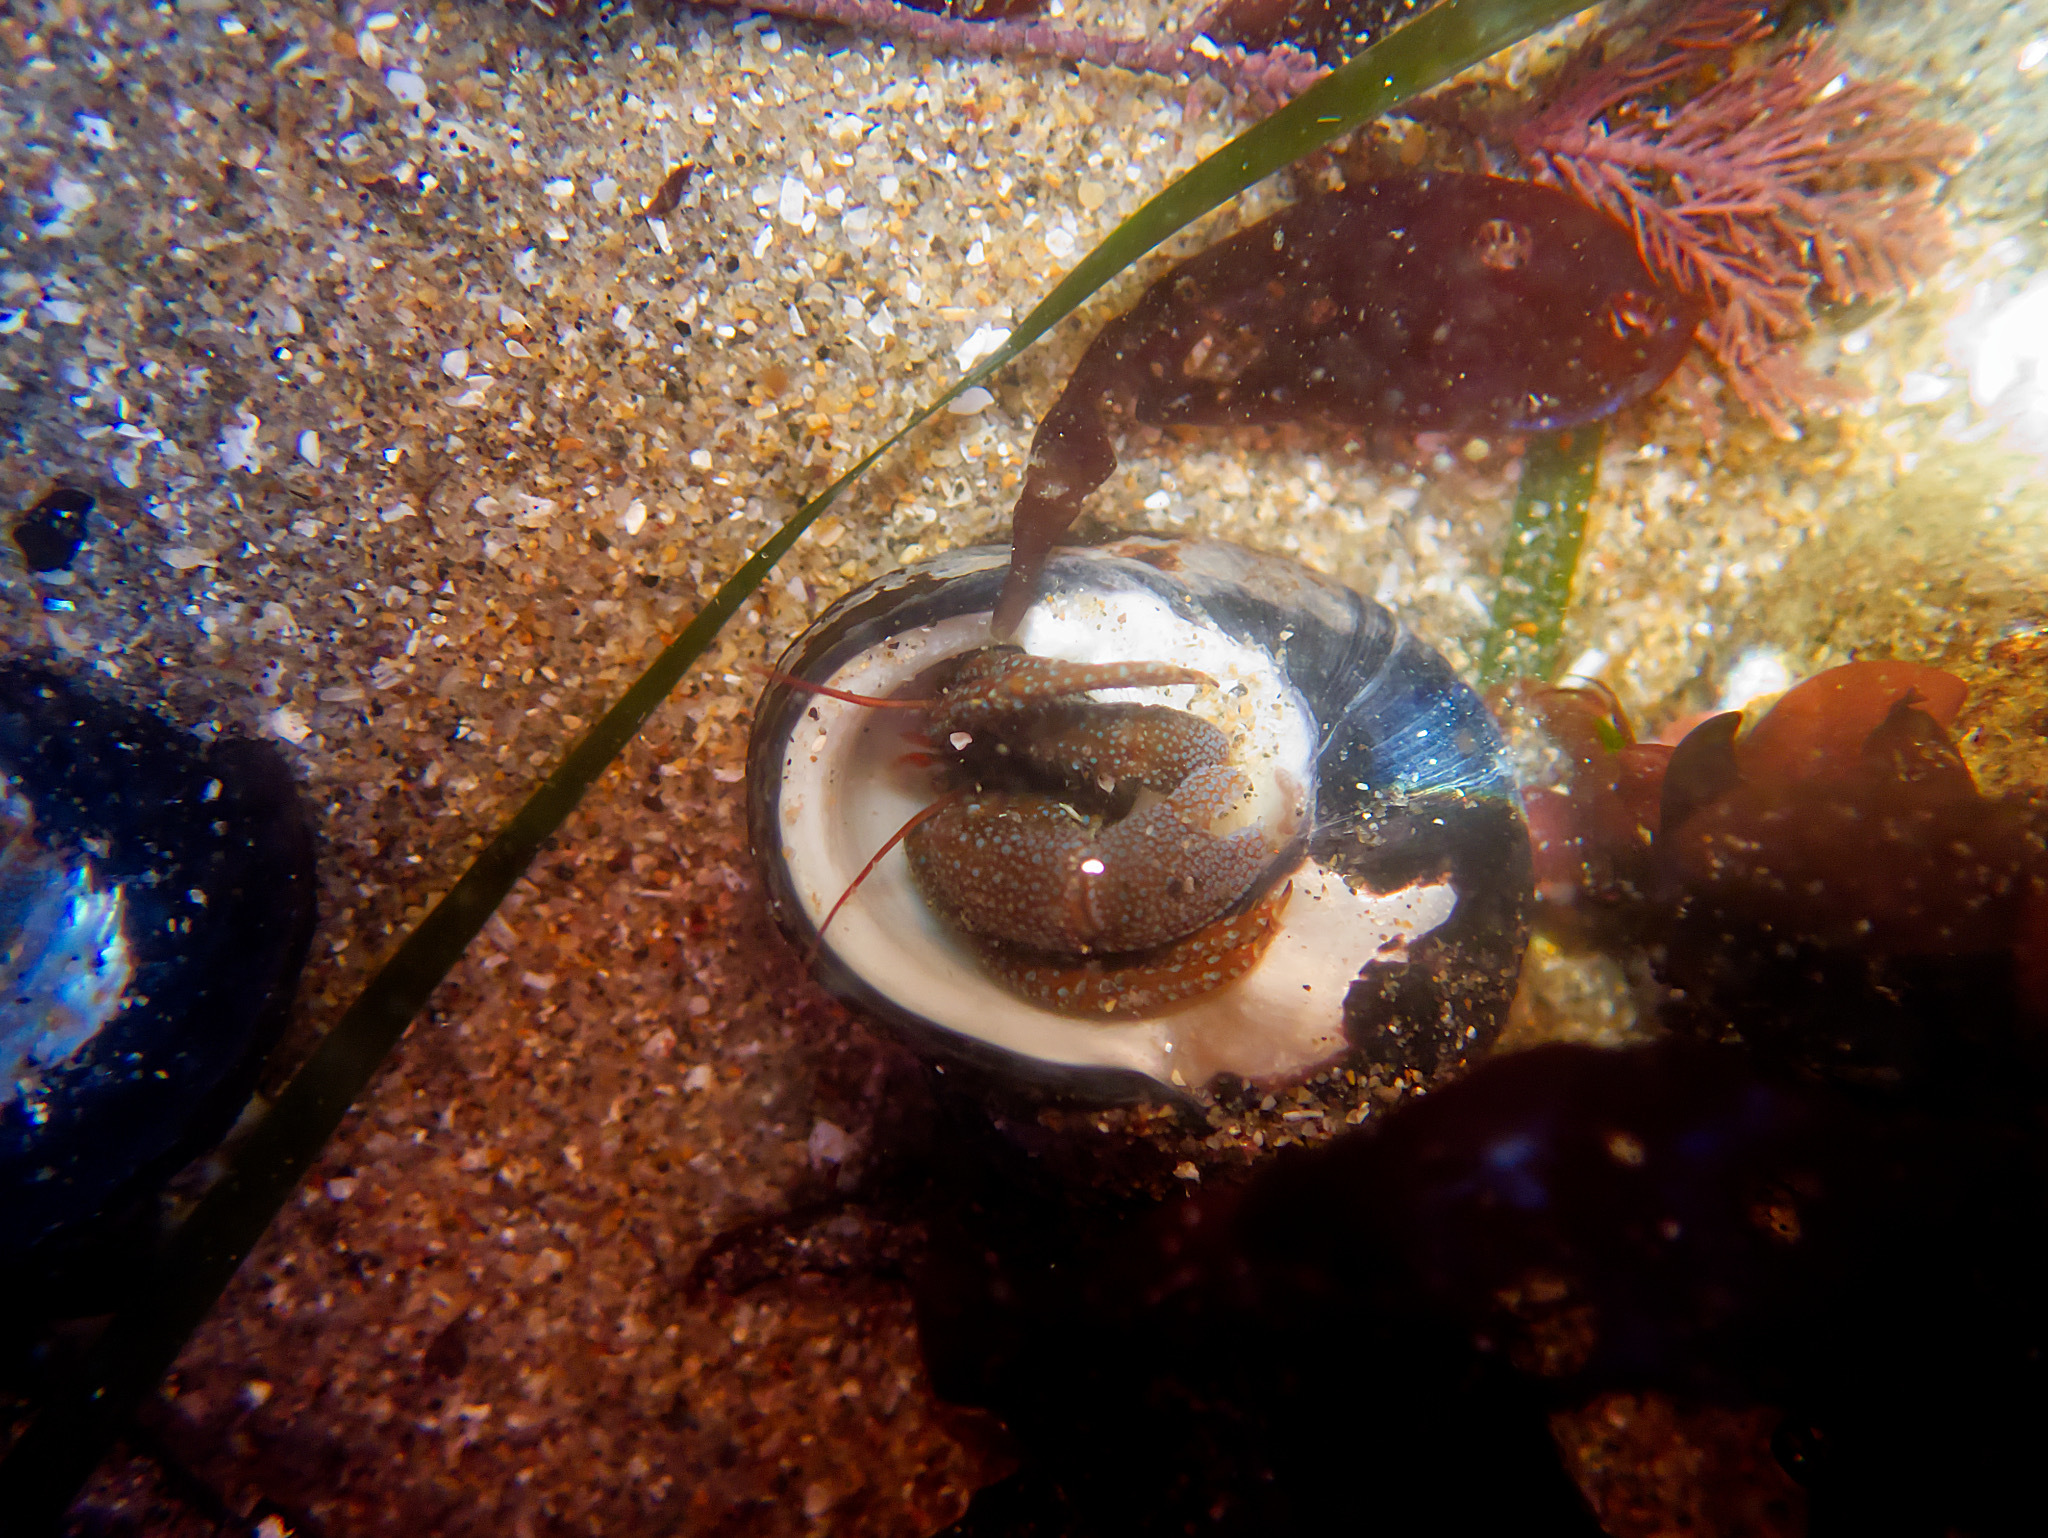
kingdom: Animalia
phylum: Arthropoda
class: Malacostraca
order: Decapoda
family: Paguridae
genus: Pagurus
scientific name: Pagurus granosimanus
